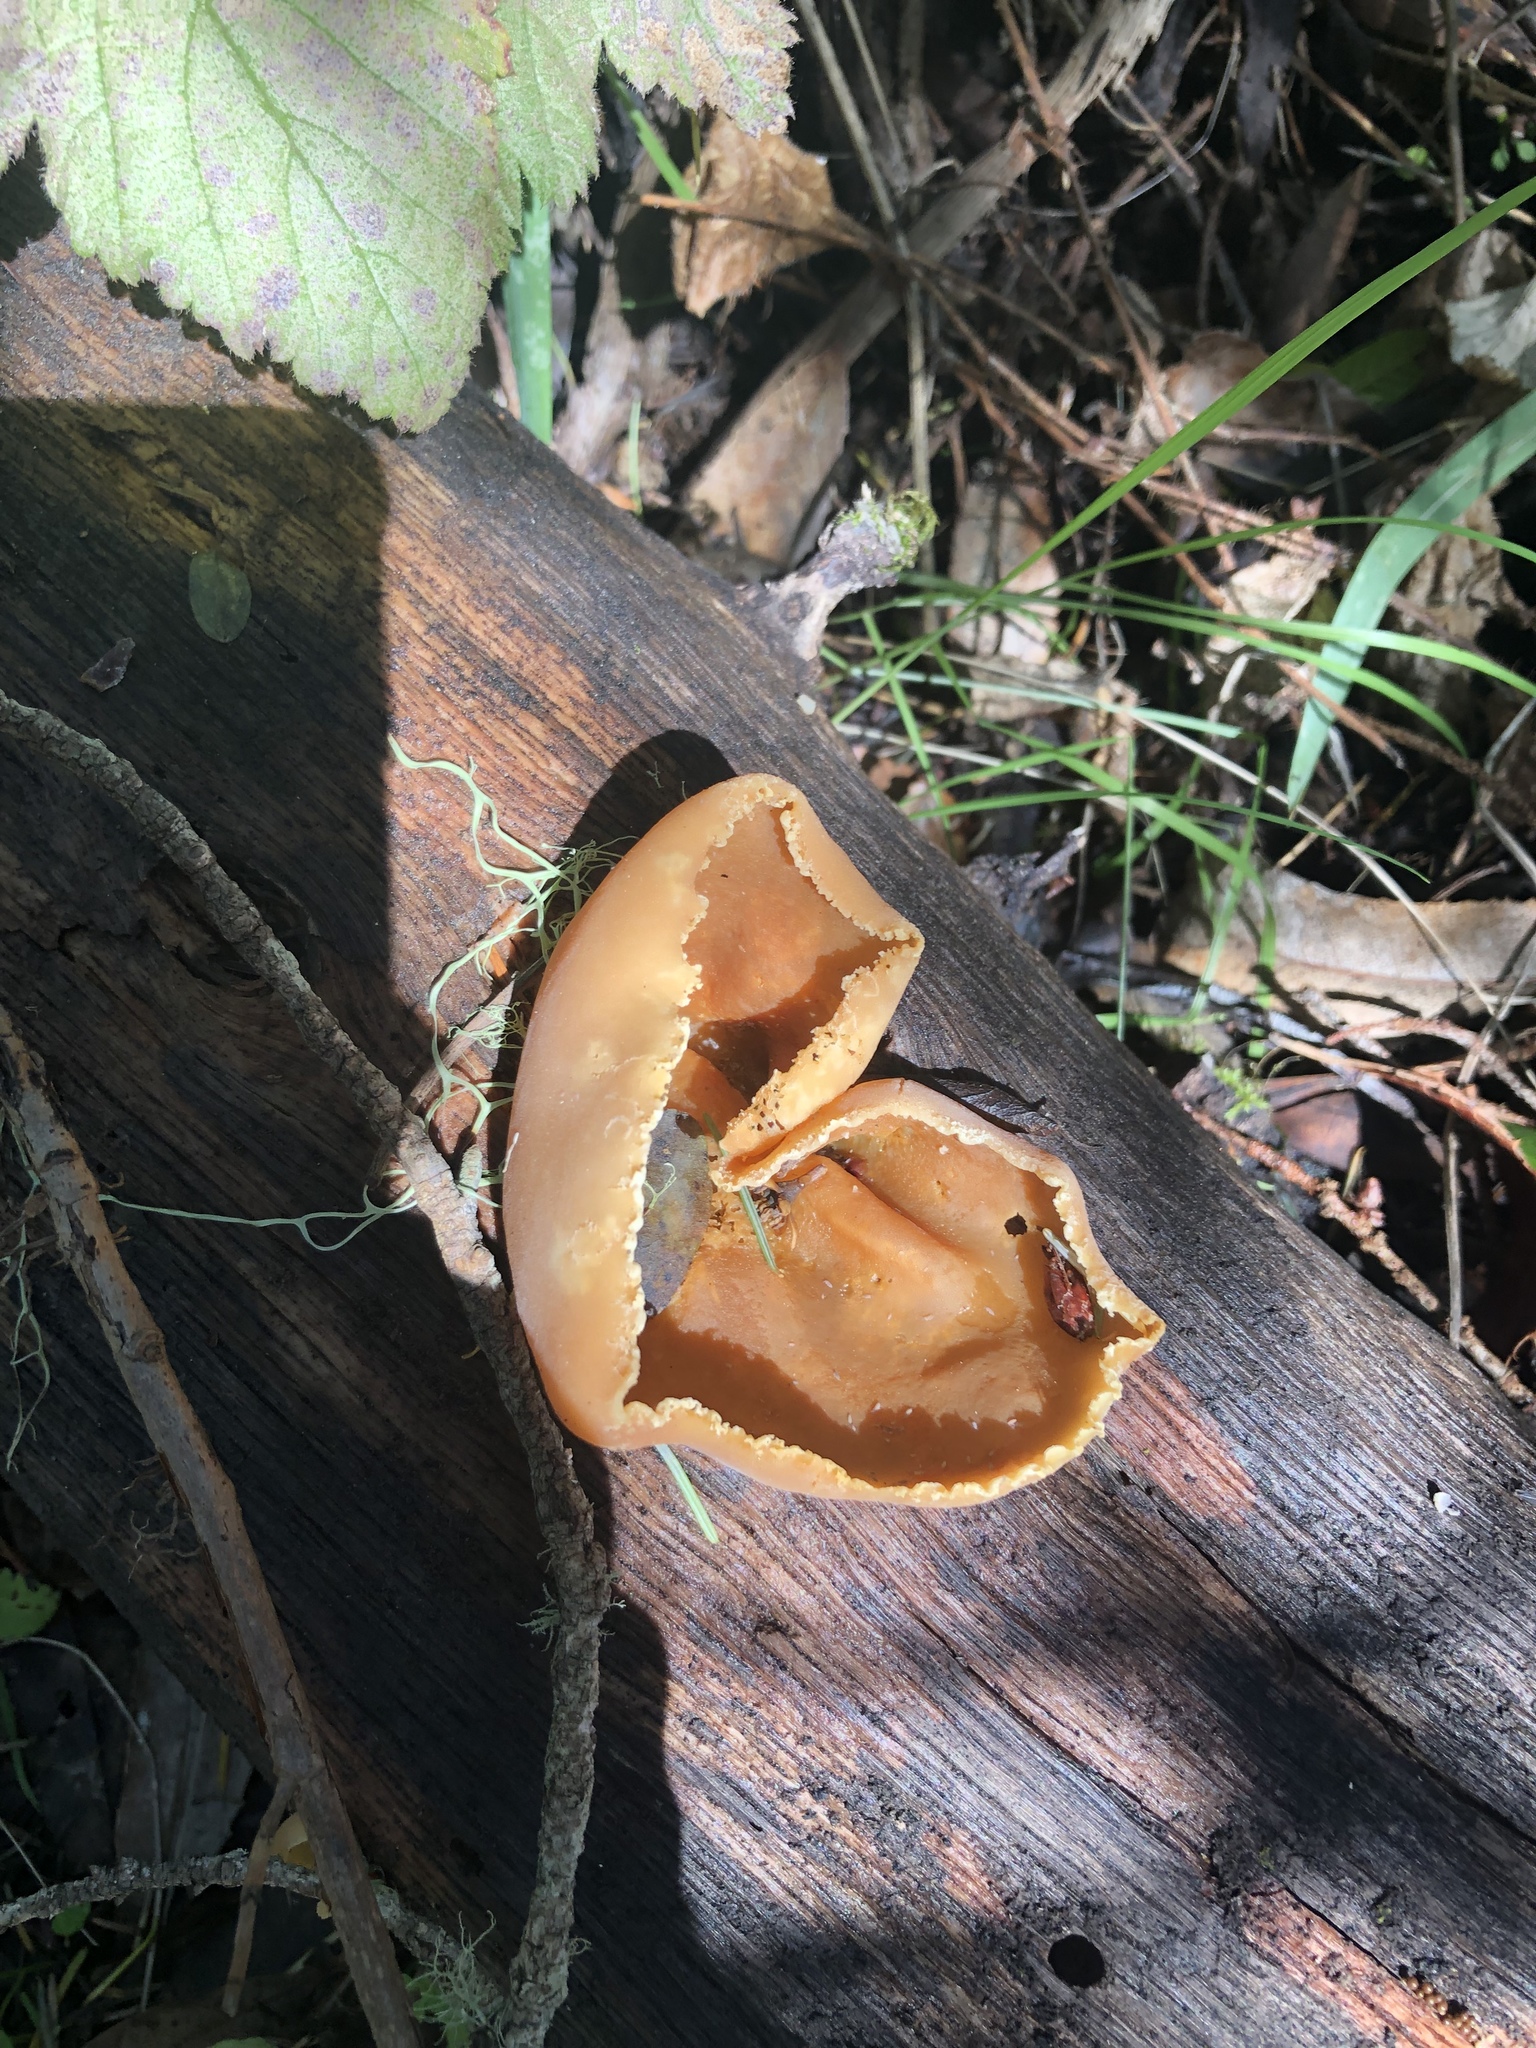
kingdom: Fungi
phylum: Ascomycota
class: Pezizomycetes
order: Pezizales
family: Pezizaceae
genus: Peziza
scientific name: Peziza varia
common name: Layered cup
